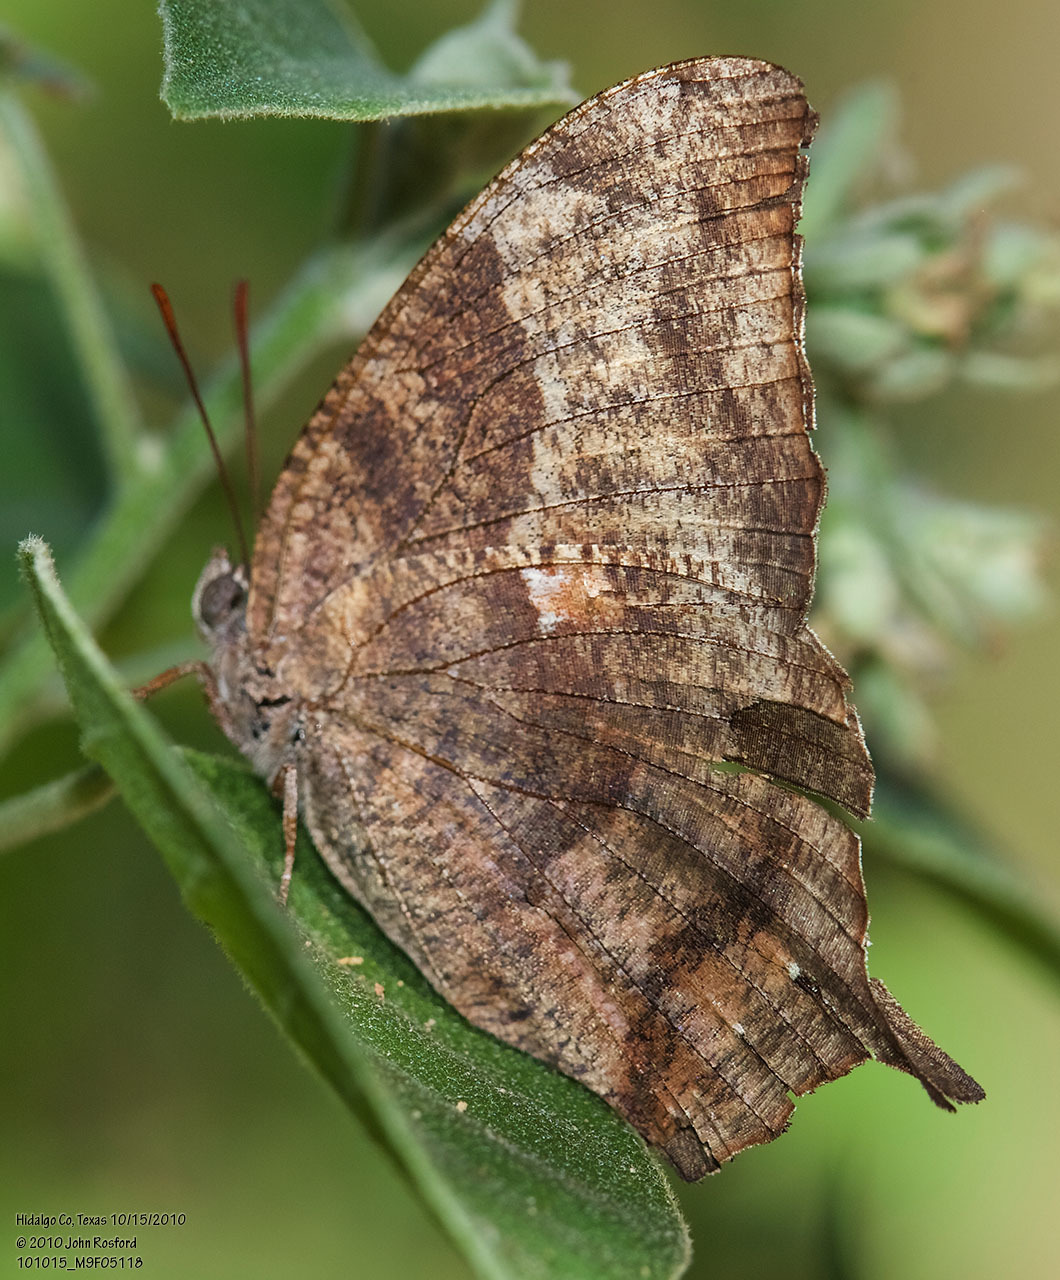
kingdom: Animalia
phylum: Arthropoda
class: Insecta
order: Lepidoptera
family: Nymphalidae
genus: Anaea
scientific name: Anaea pithyusa
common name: Pale-spotted leafwing
